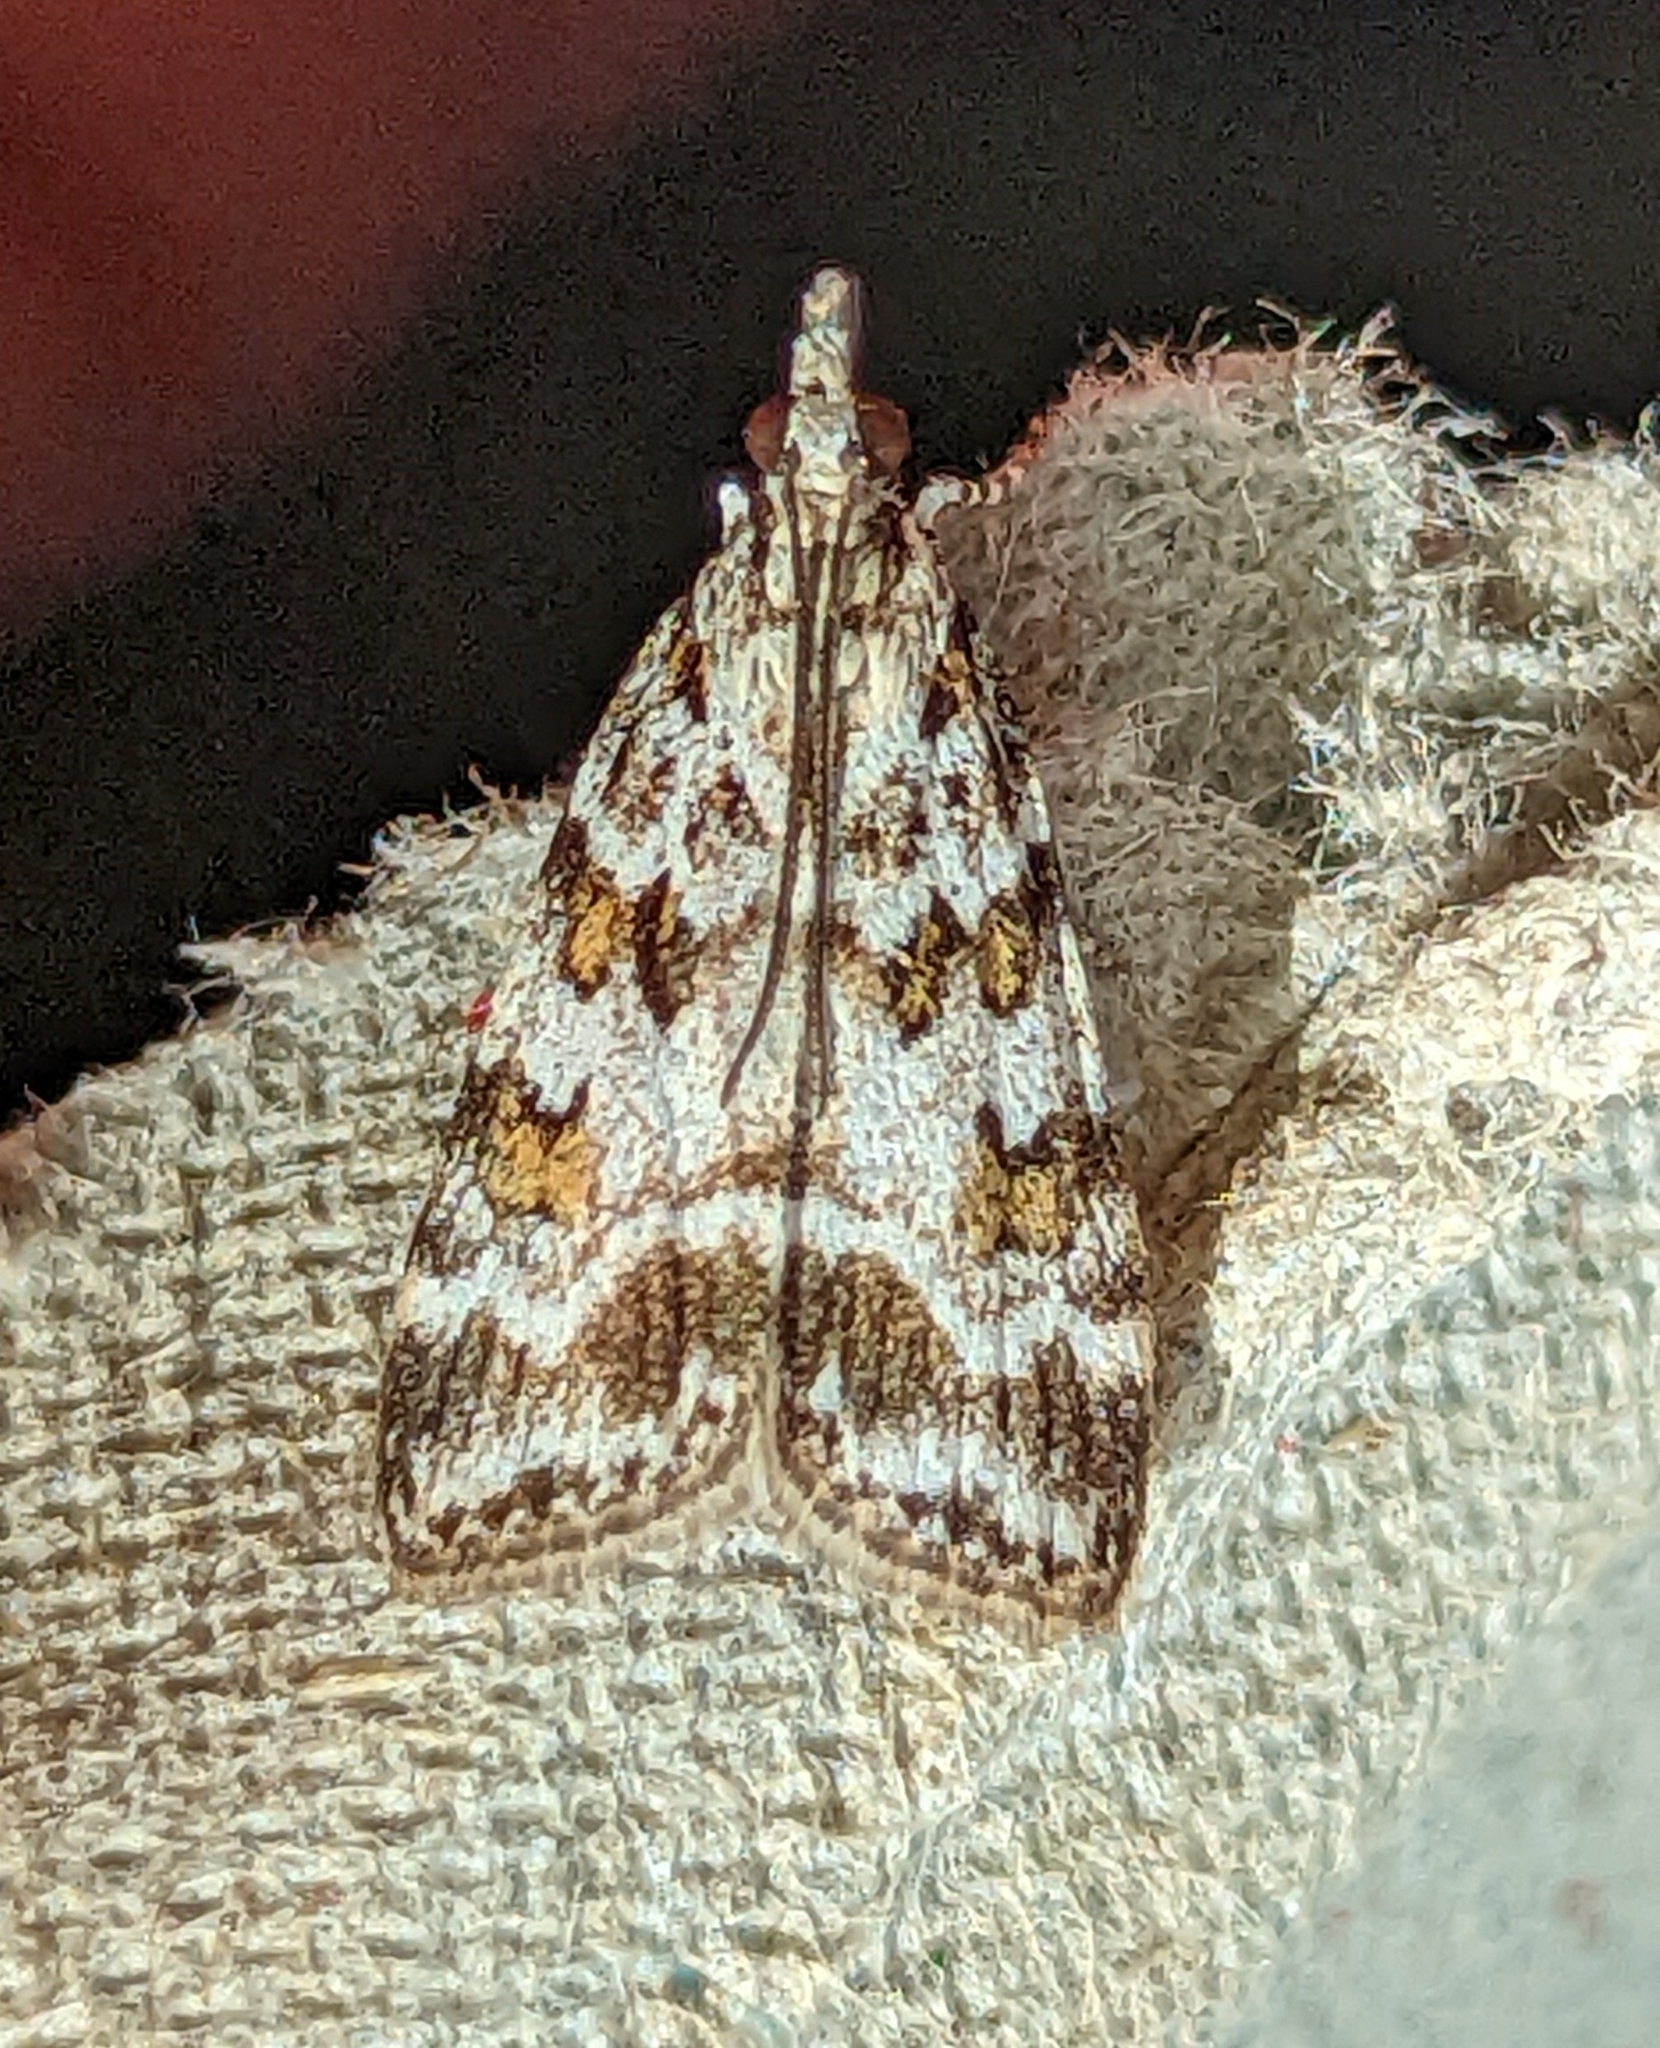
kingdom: Animalia
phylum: Arthropoda
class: Insecta
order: Lepidoptera
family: Crambidae
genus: Scoparia
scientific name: Scoparia pyralella
